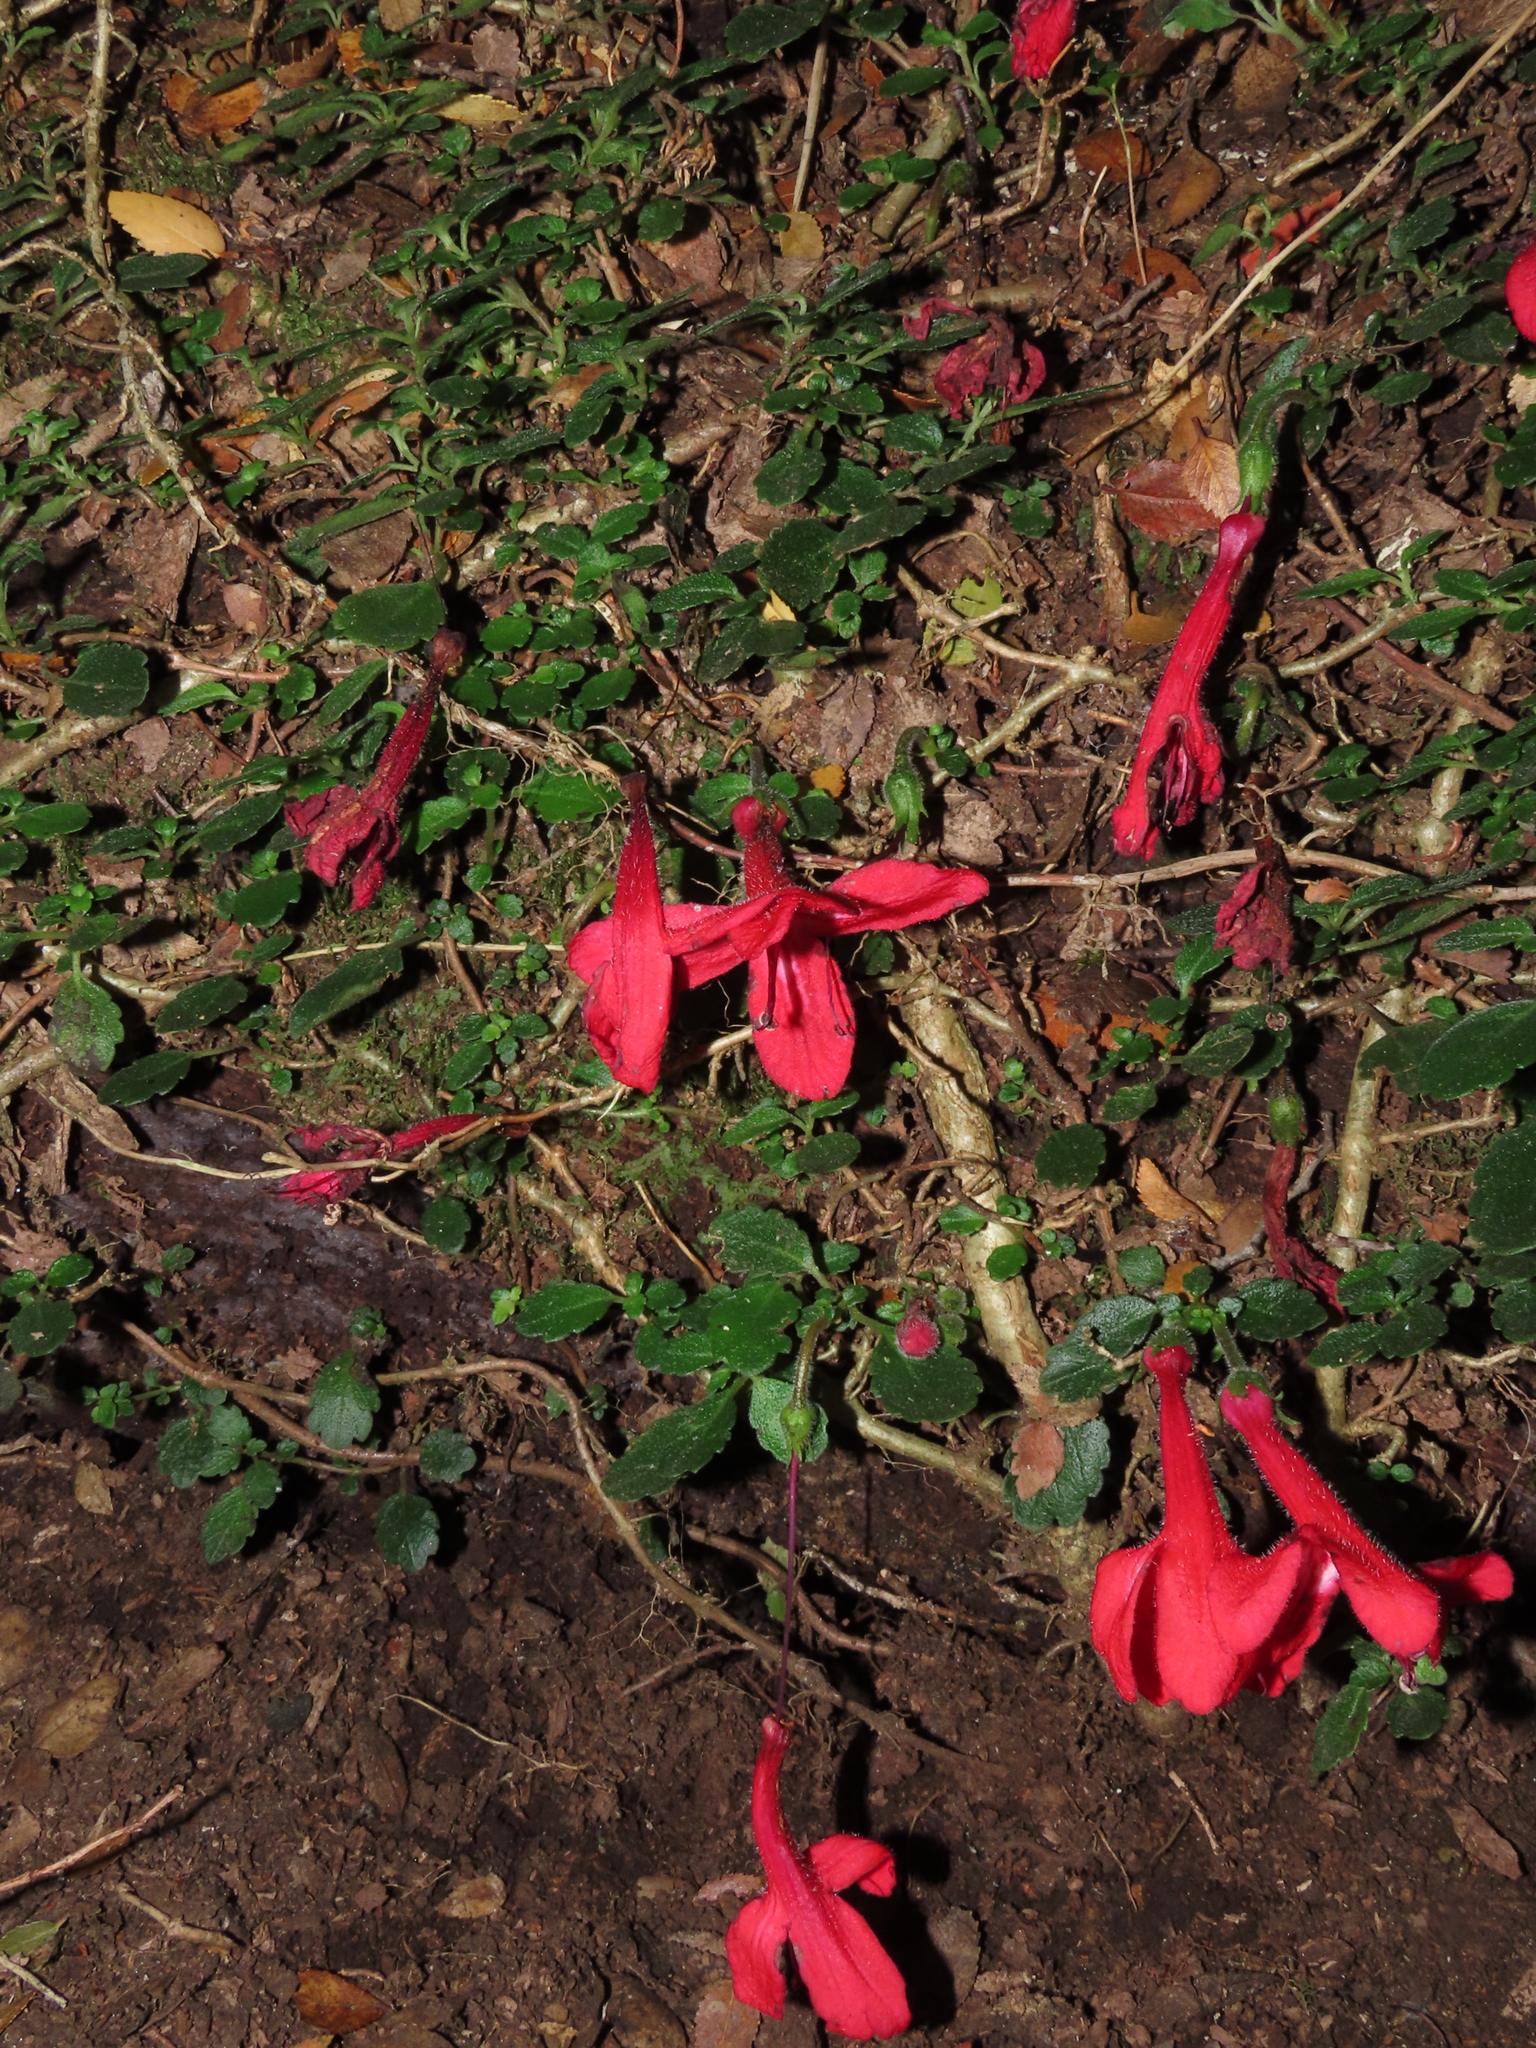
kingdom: Plantae
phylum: Tracheophyta
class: Magnoliopsida
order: Lamiales
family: Gesneriaceae
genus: Asteranthera
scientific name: Asteranthera ovata
